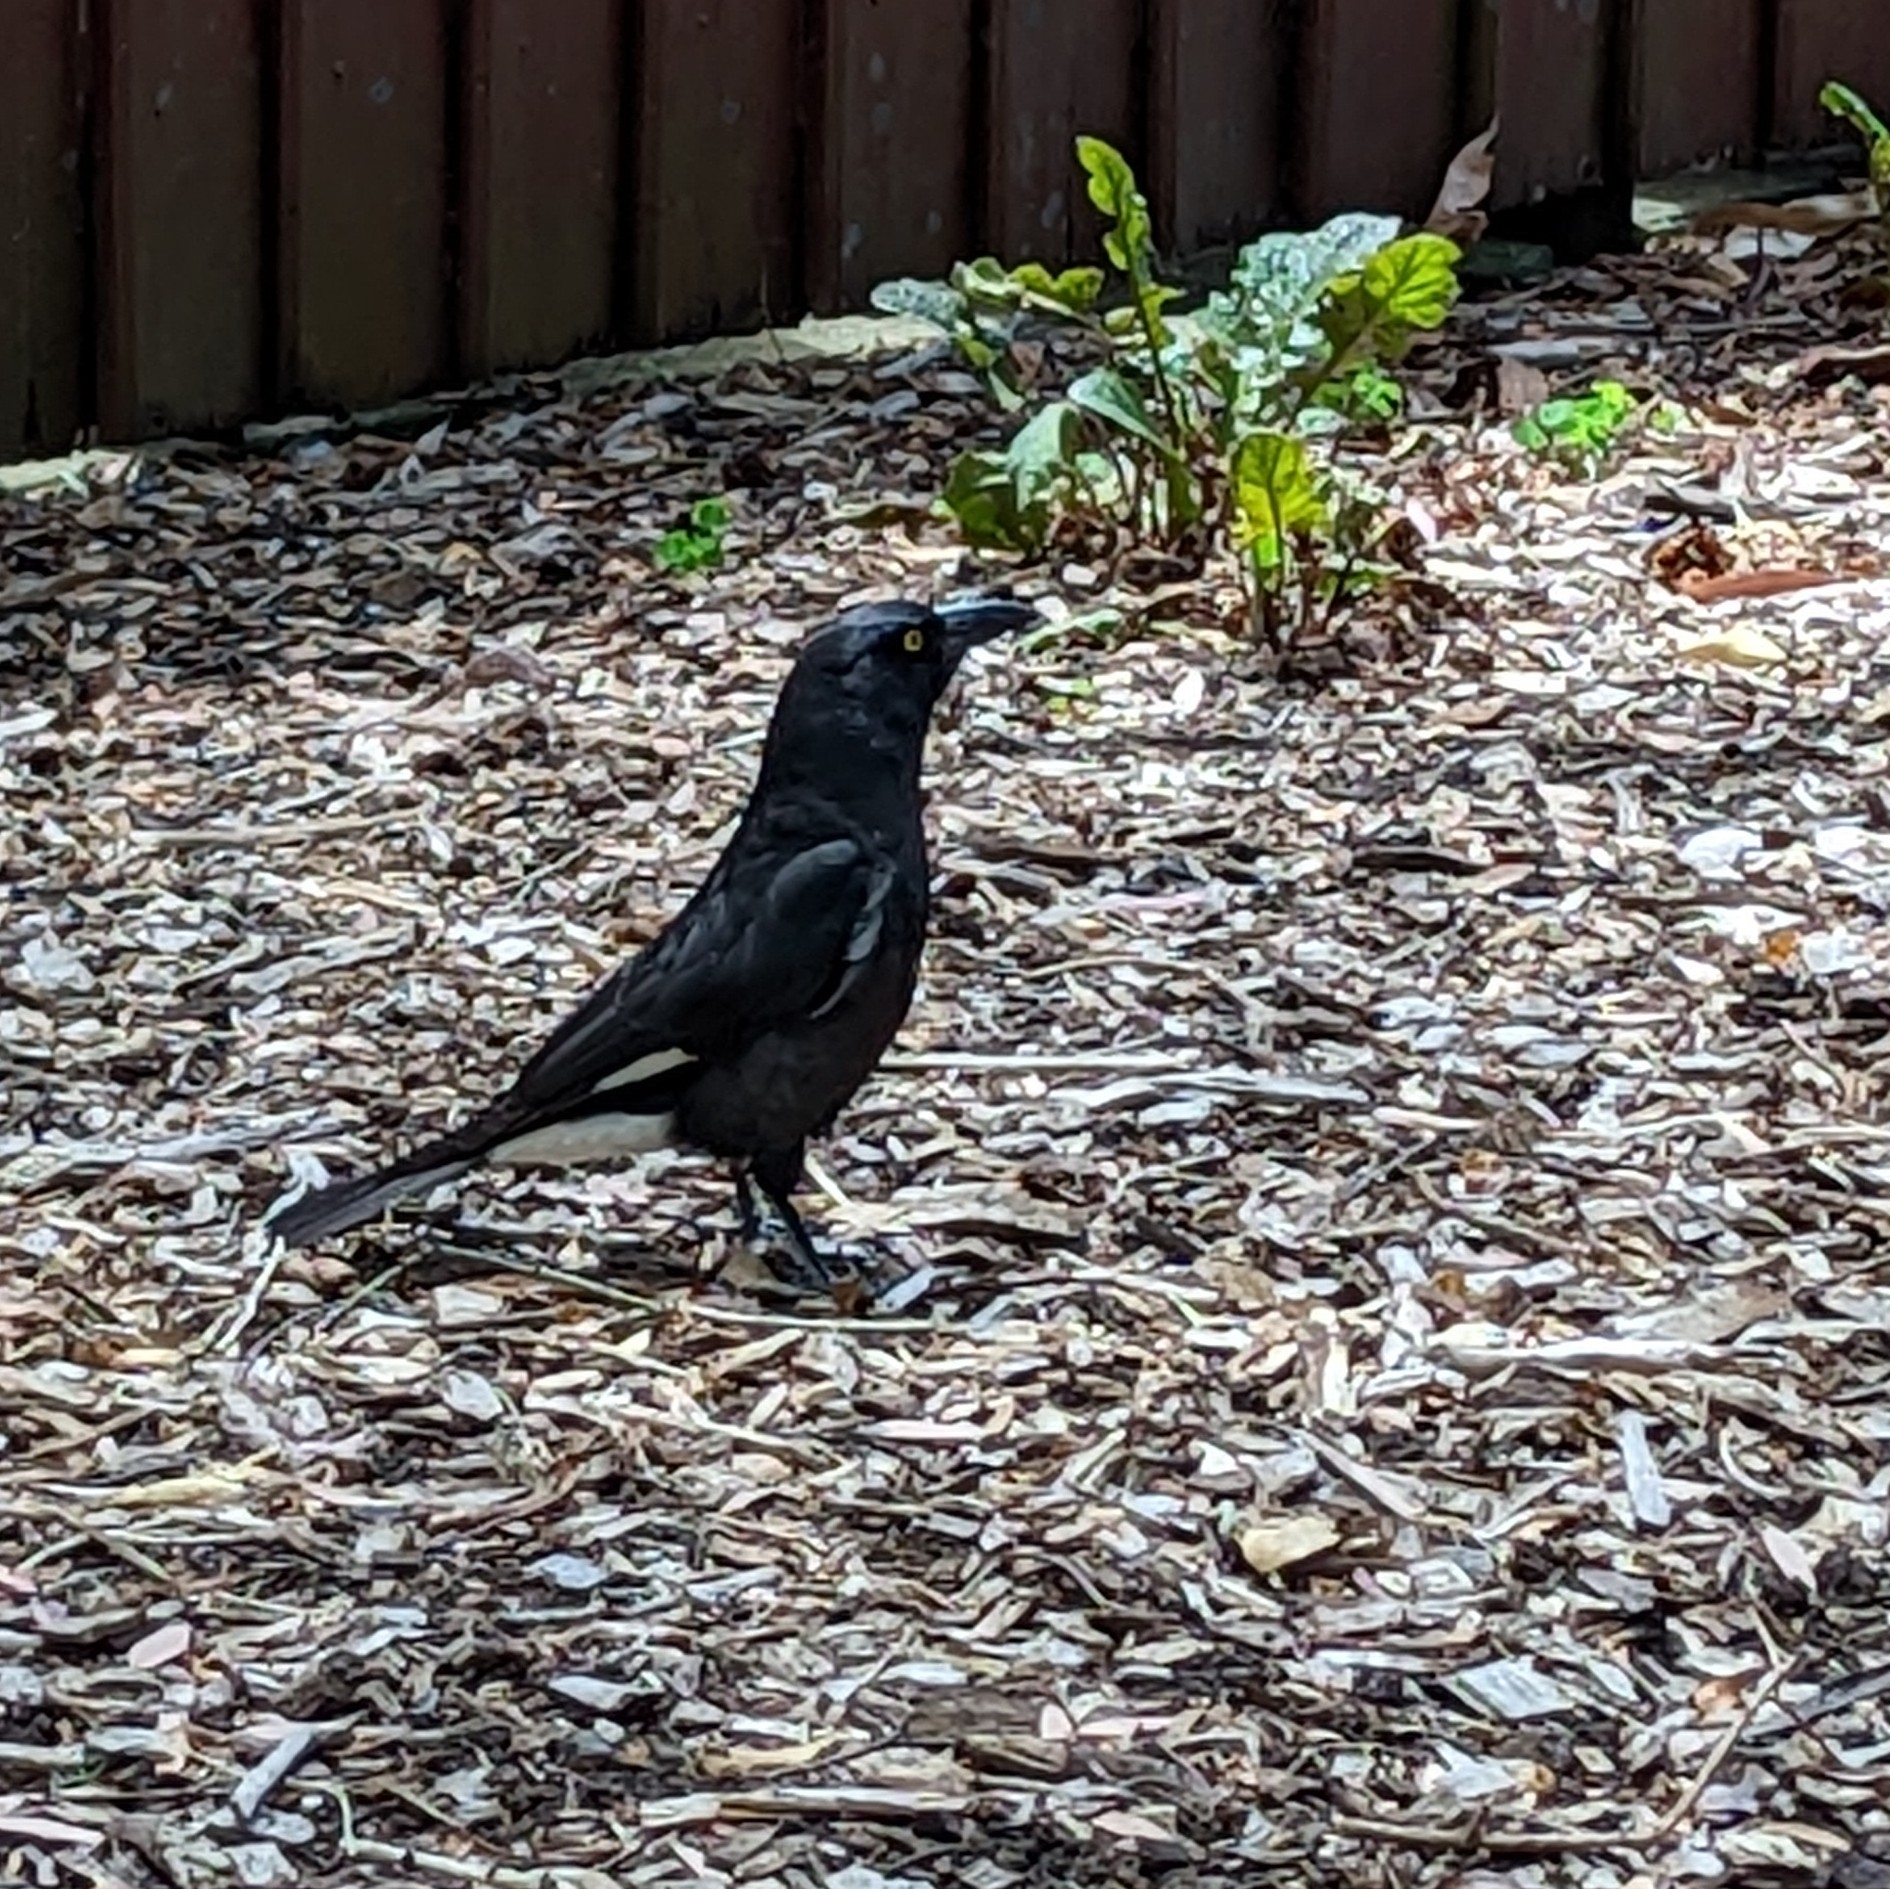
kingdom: Animalia
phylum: Chordata
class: Aves
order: Passeriformes
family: Cracticidae
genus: Strepera
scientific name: Strepera graculina
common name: Pied currawong
